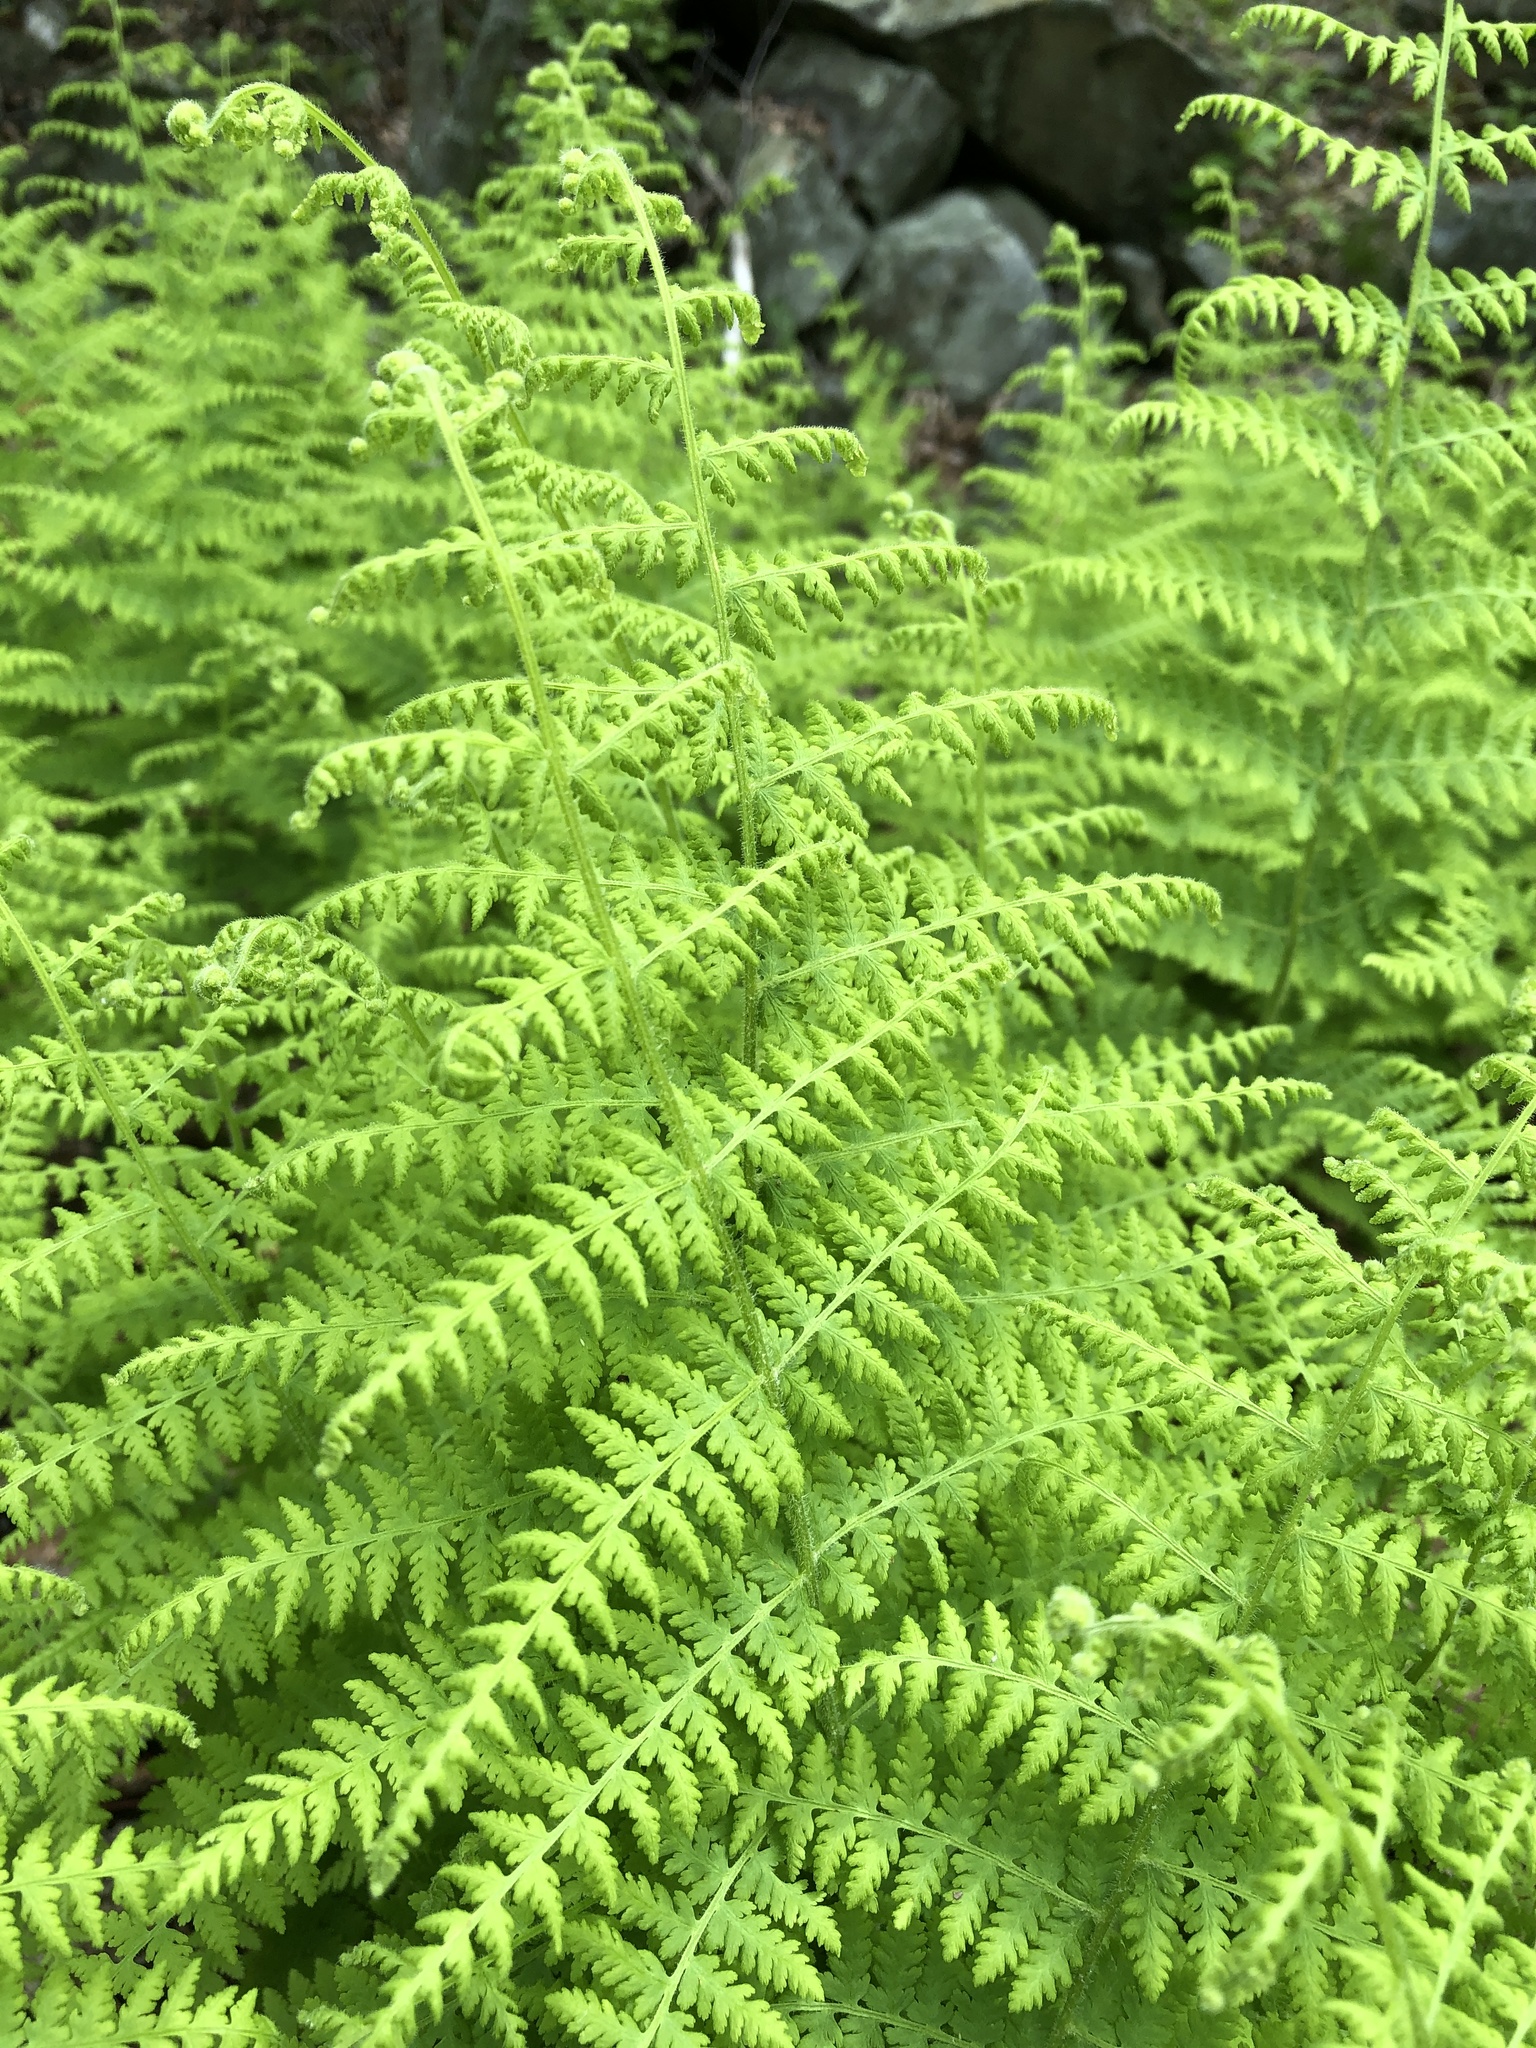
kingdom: Plantae
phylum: Tracheophyta
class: Polypodiopsida
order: Polypodiales
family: Dennstaedtiaceae
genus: Sitobolium
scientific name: Sitobolium punctilobum
